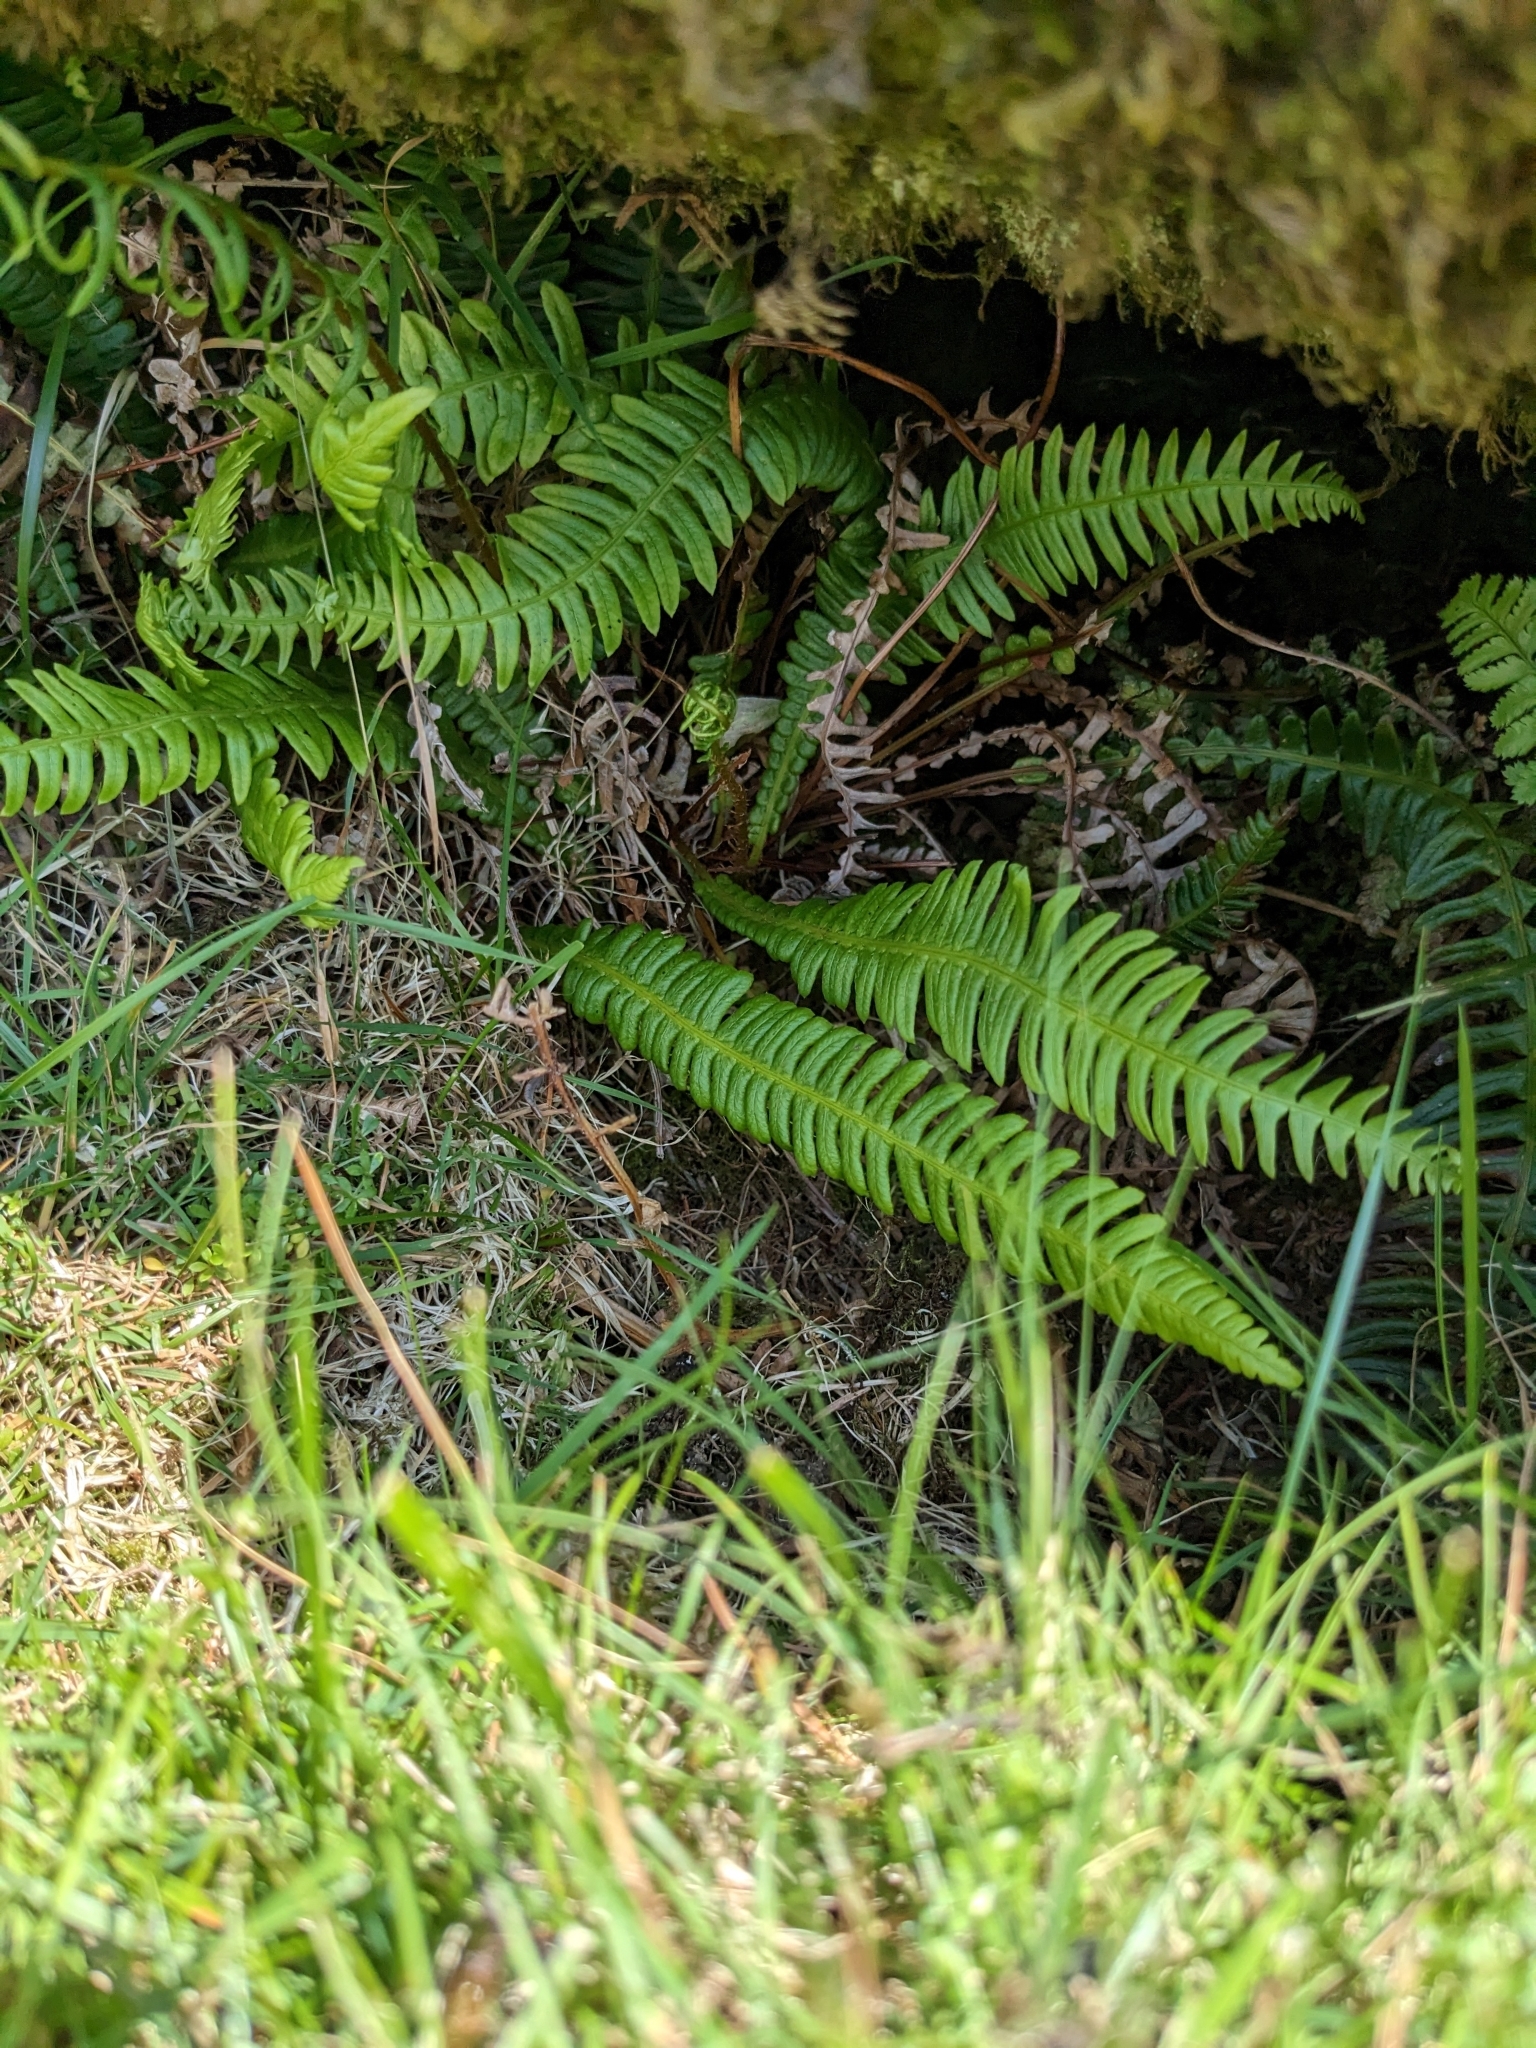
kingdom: Plantae
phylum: Tracheophyta
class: Polypodiopsida
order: Polypodiales
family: Blechnaceae
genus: Struthiopteris
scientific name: Struthiopteris spicant
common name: Deer fern
